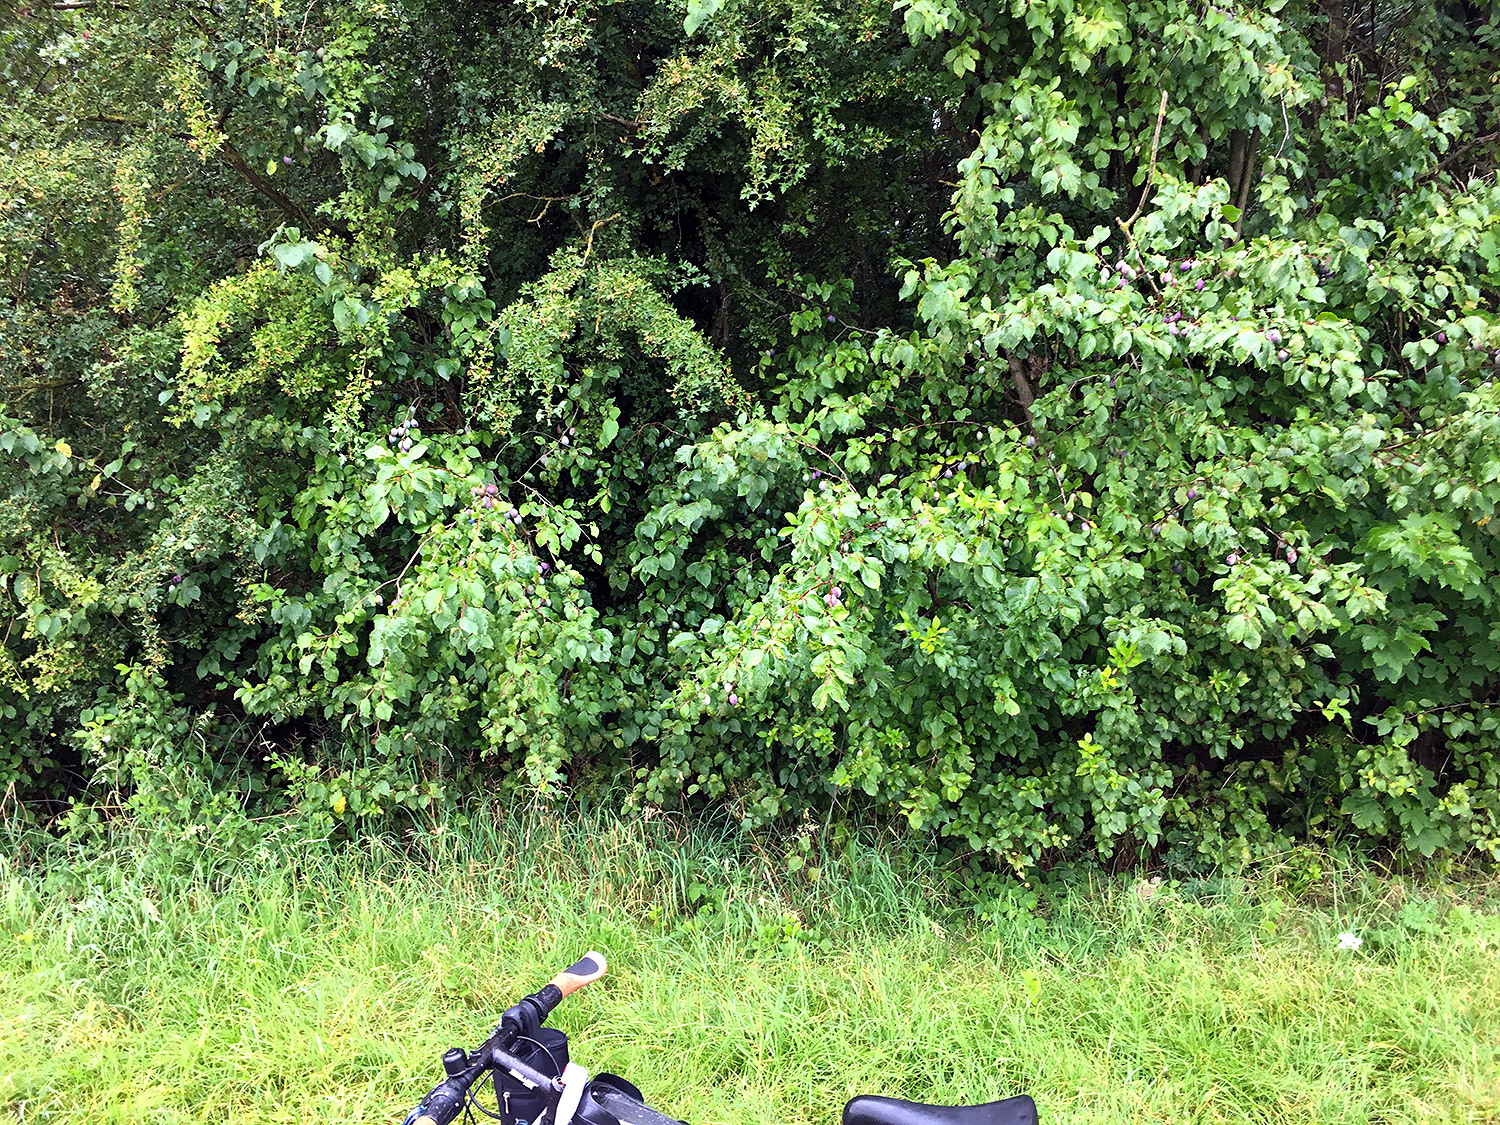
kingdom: Plantae
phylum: Tracheophyta
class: Magnoliopsida
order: Rosales
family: Rosaceae
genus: Prunus
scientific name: Prunus domestica
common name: Wild plum
